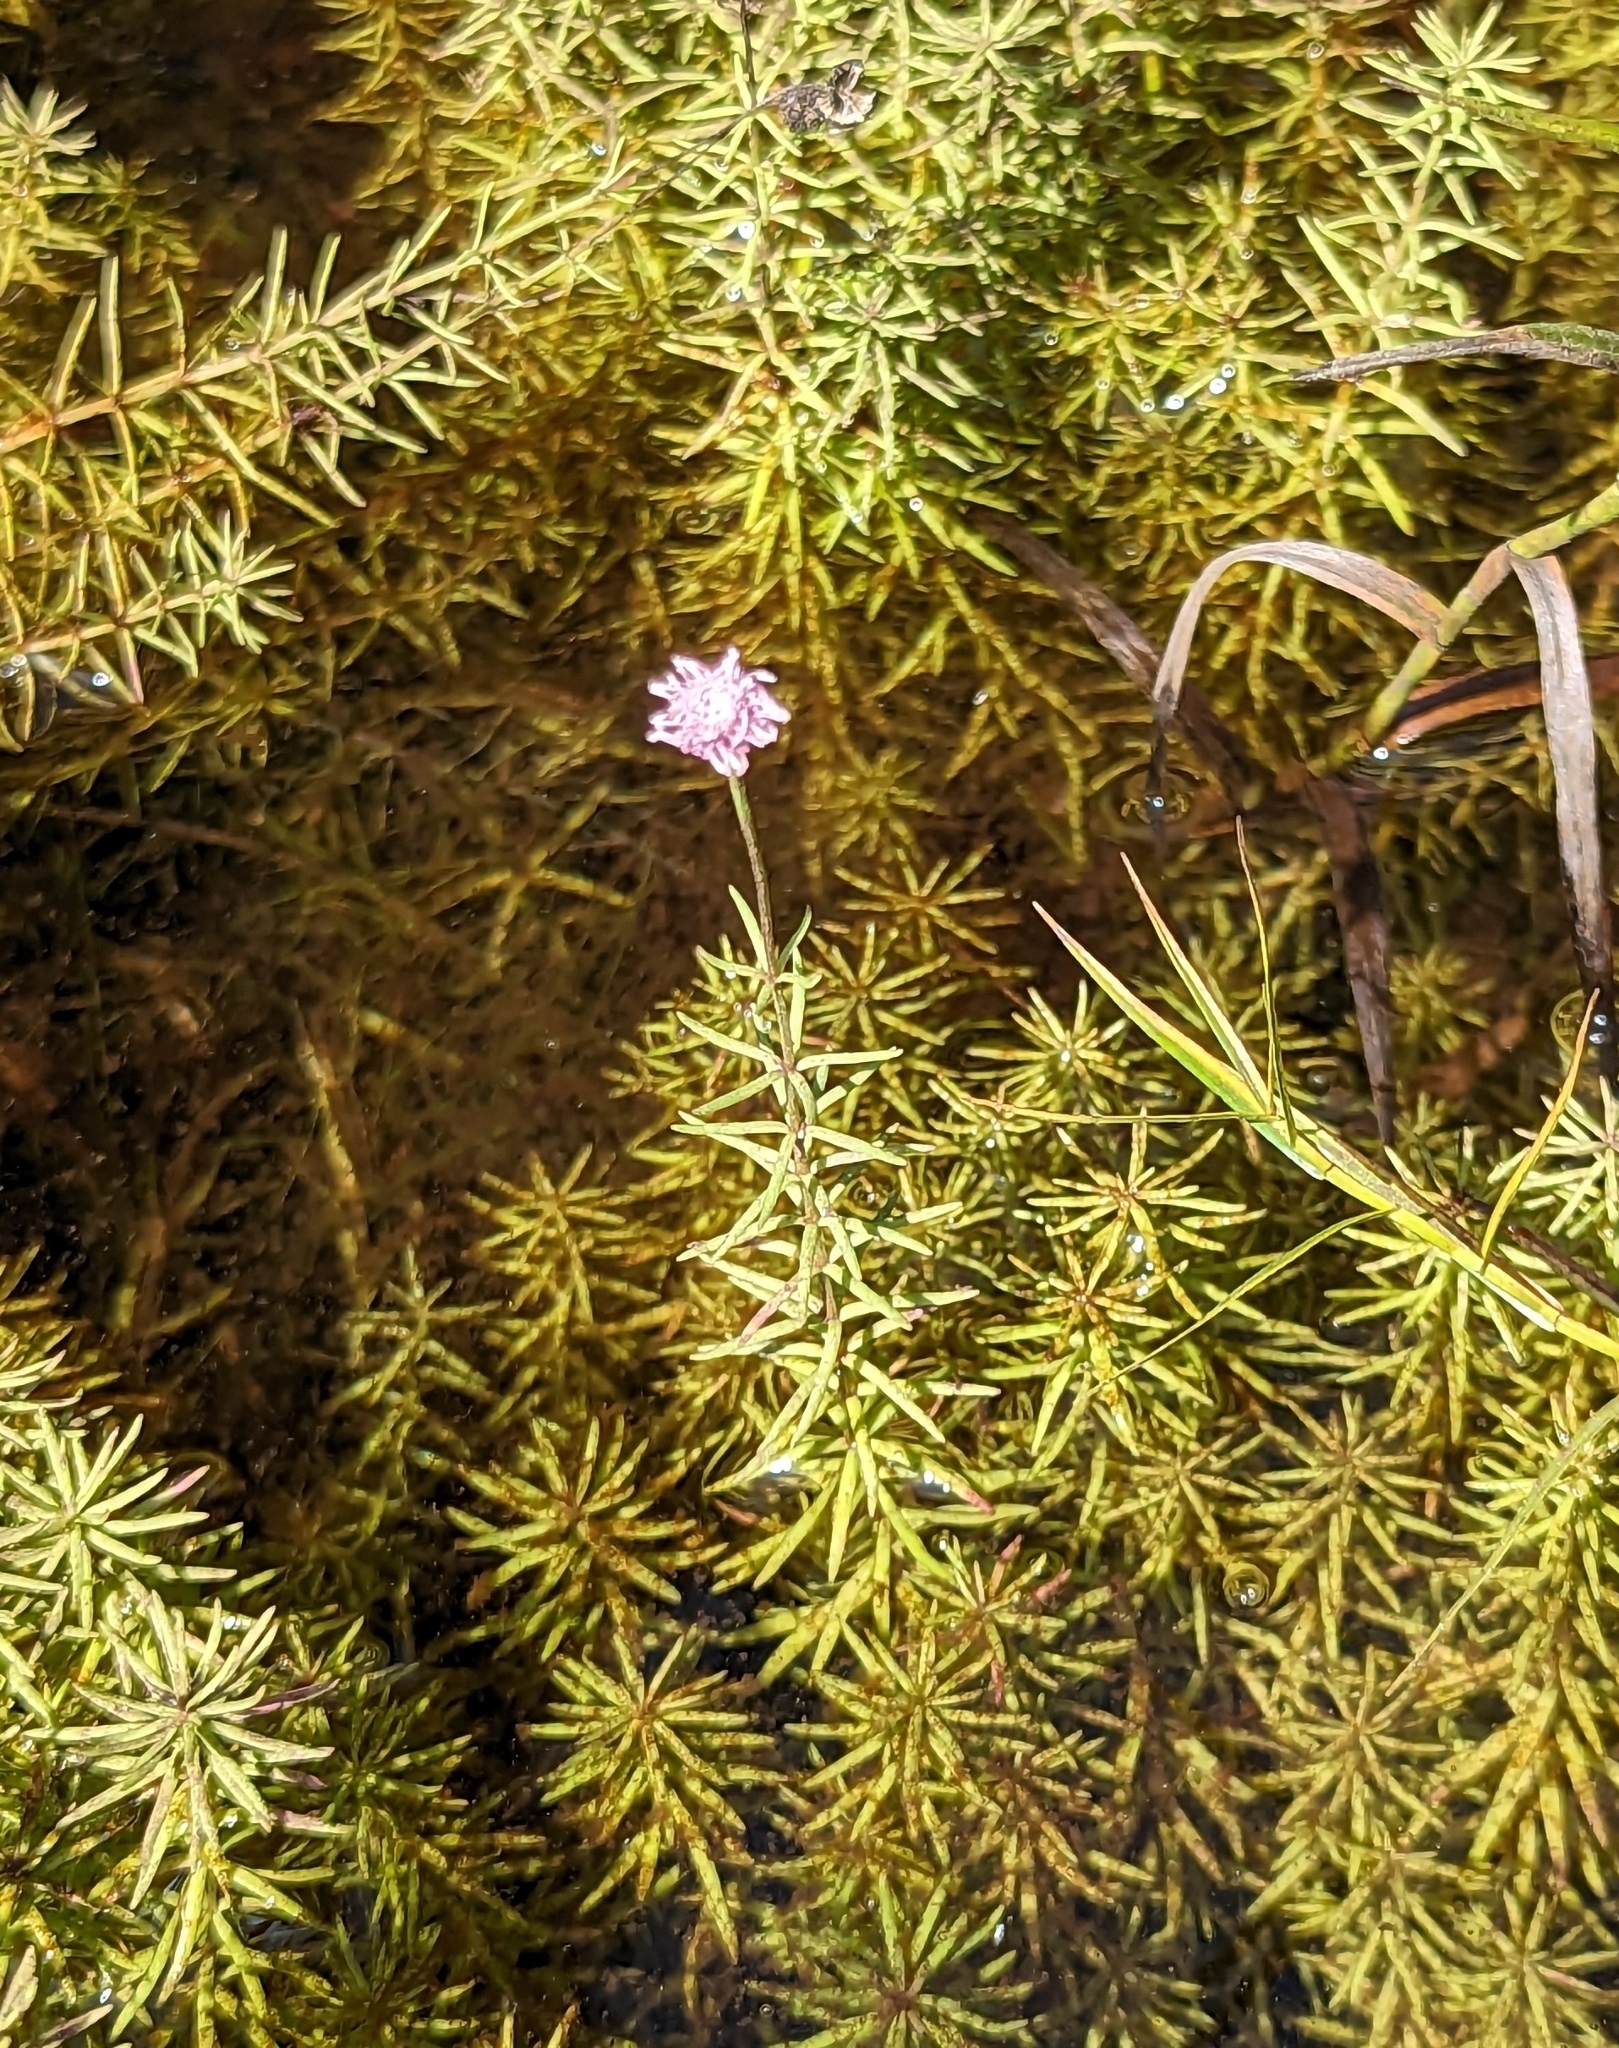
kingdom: Plantae
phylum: Tracheophyta
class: Magnoliopsida
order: Asterales
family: Asteraceae
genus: Sclerolepis
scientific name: Sclerolepis uniflora
